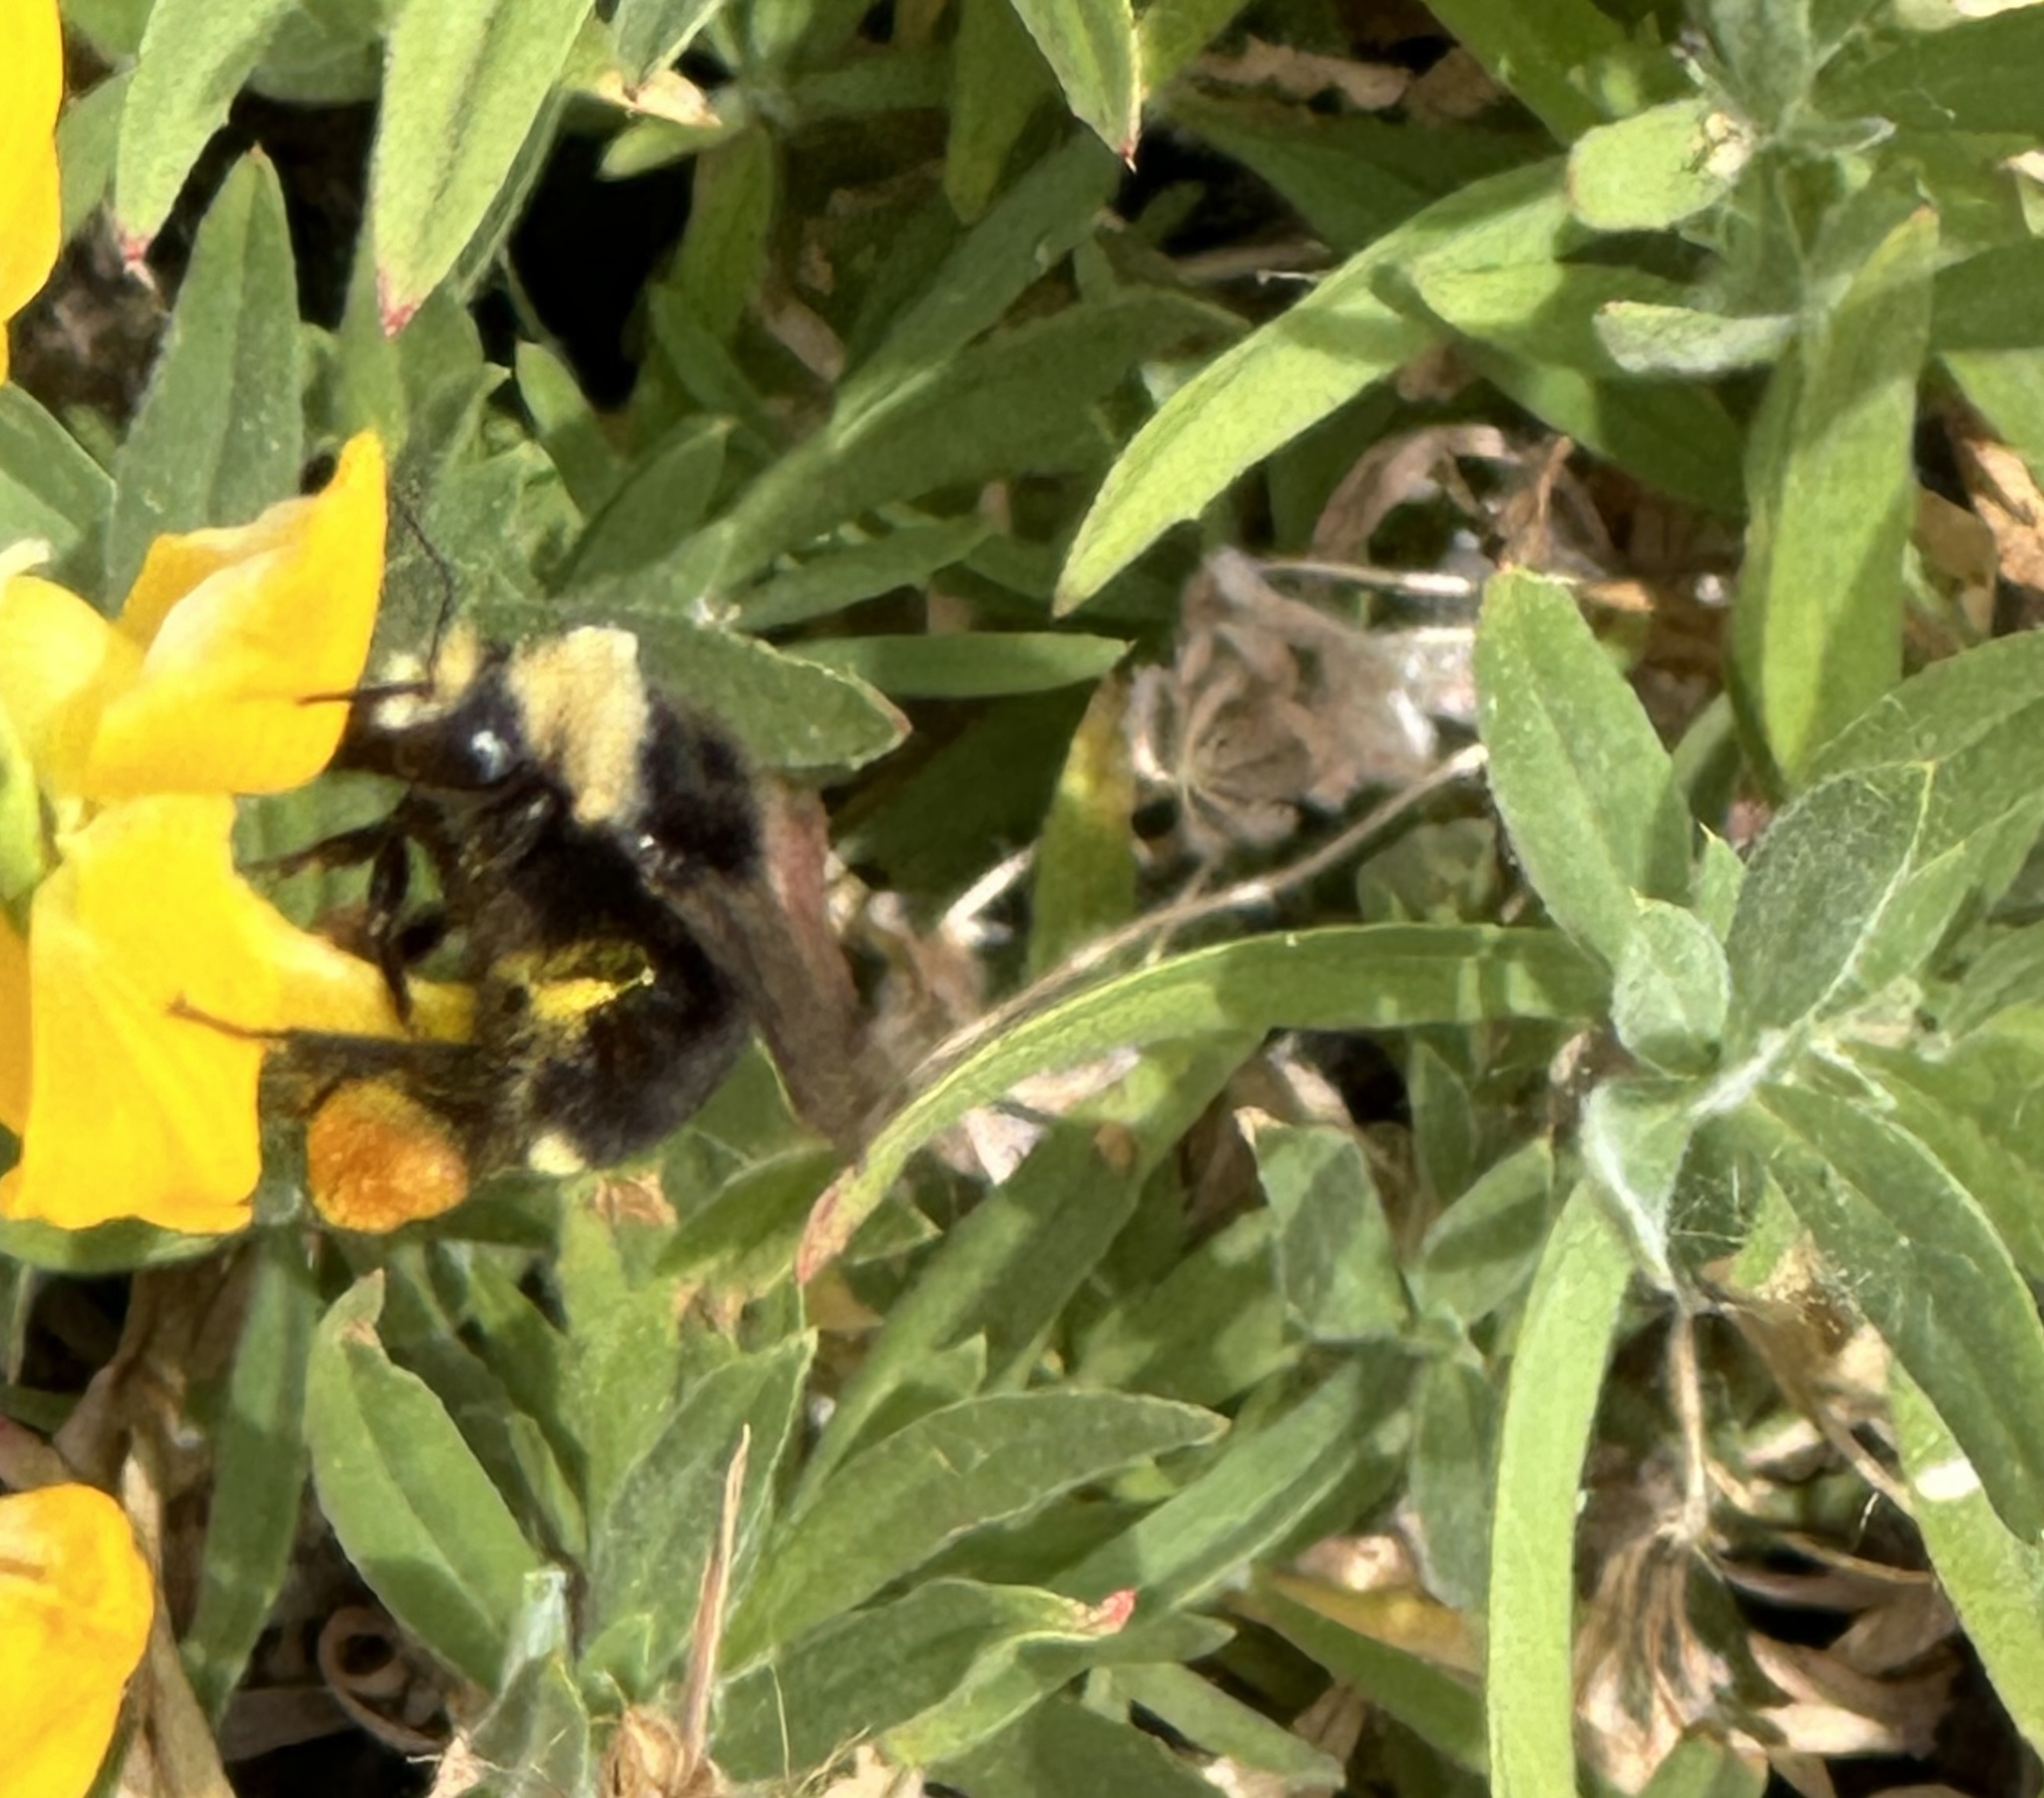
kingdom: Animalia
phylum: Arthropoda
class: Insecta
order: Hymenoptera
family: Apidae
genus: Bombus
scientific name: Bombus vosnesenskii
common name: Vosnesensky bumble bee
